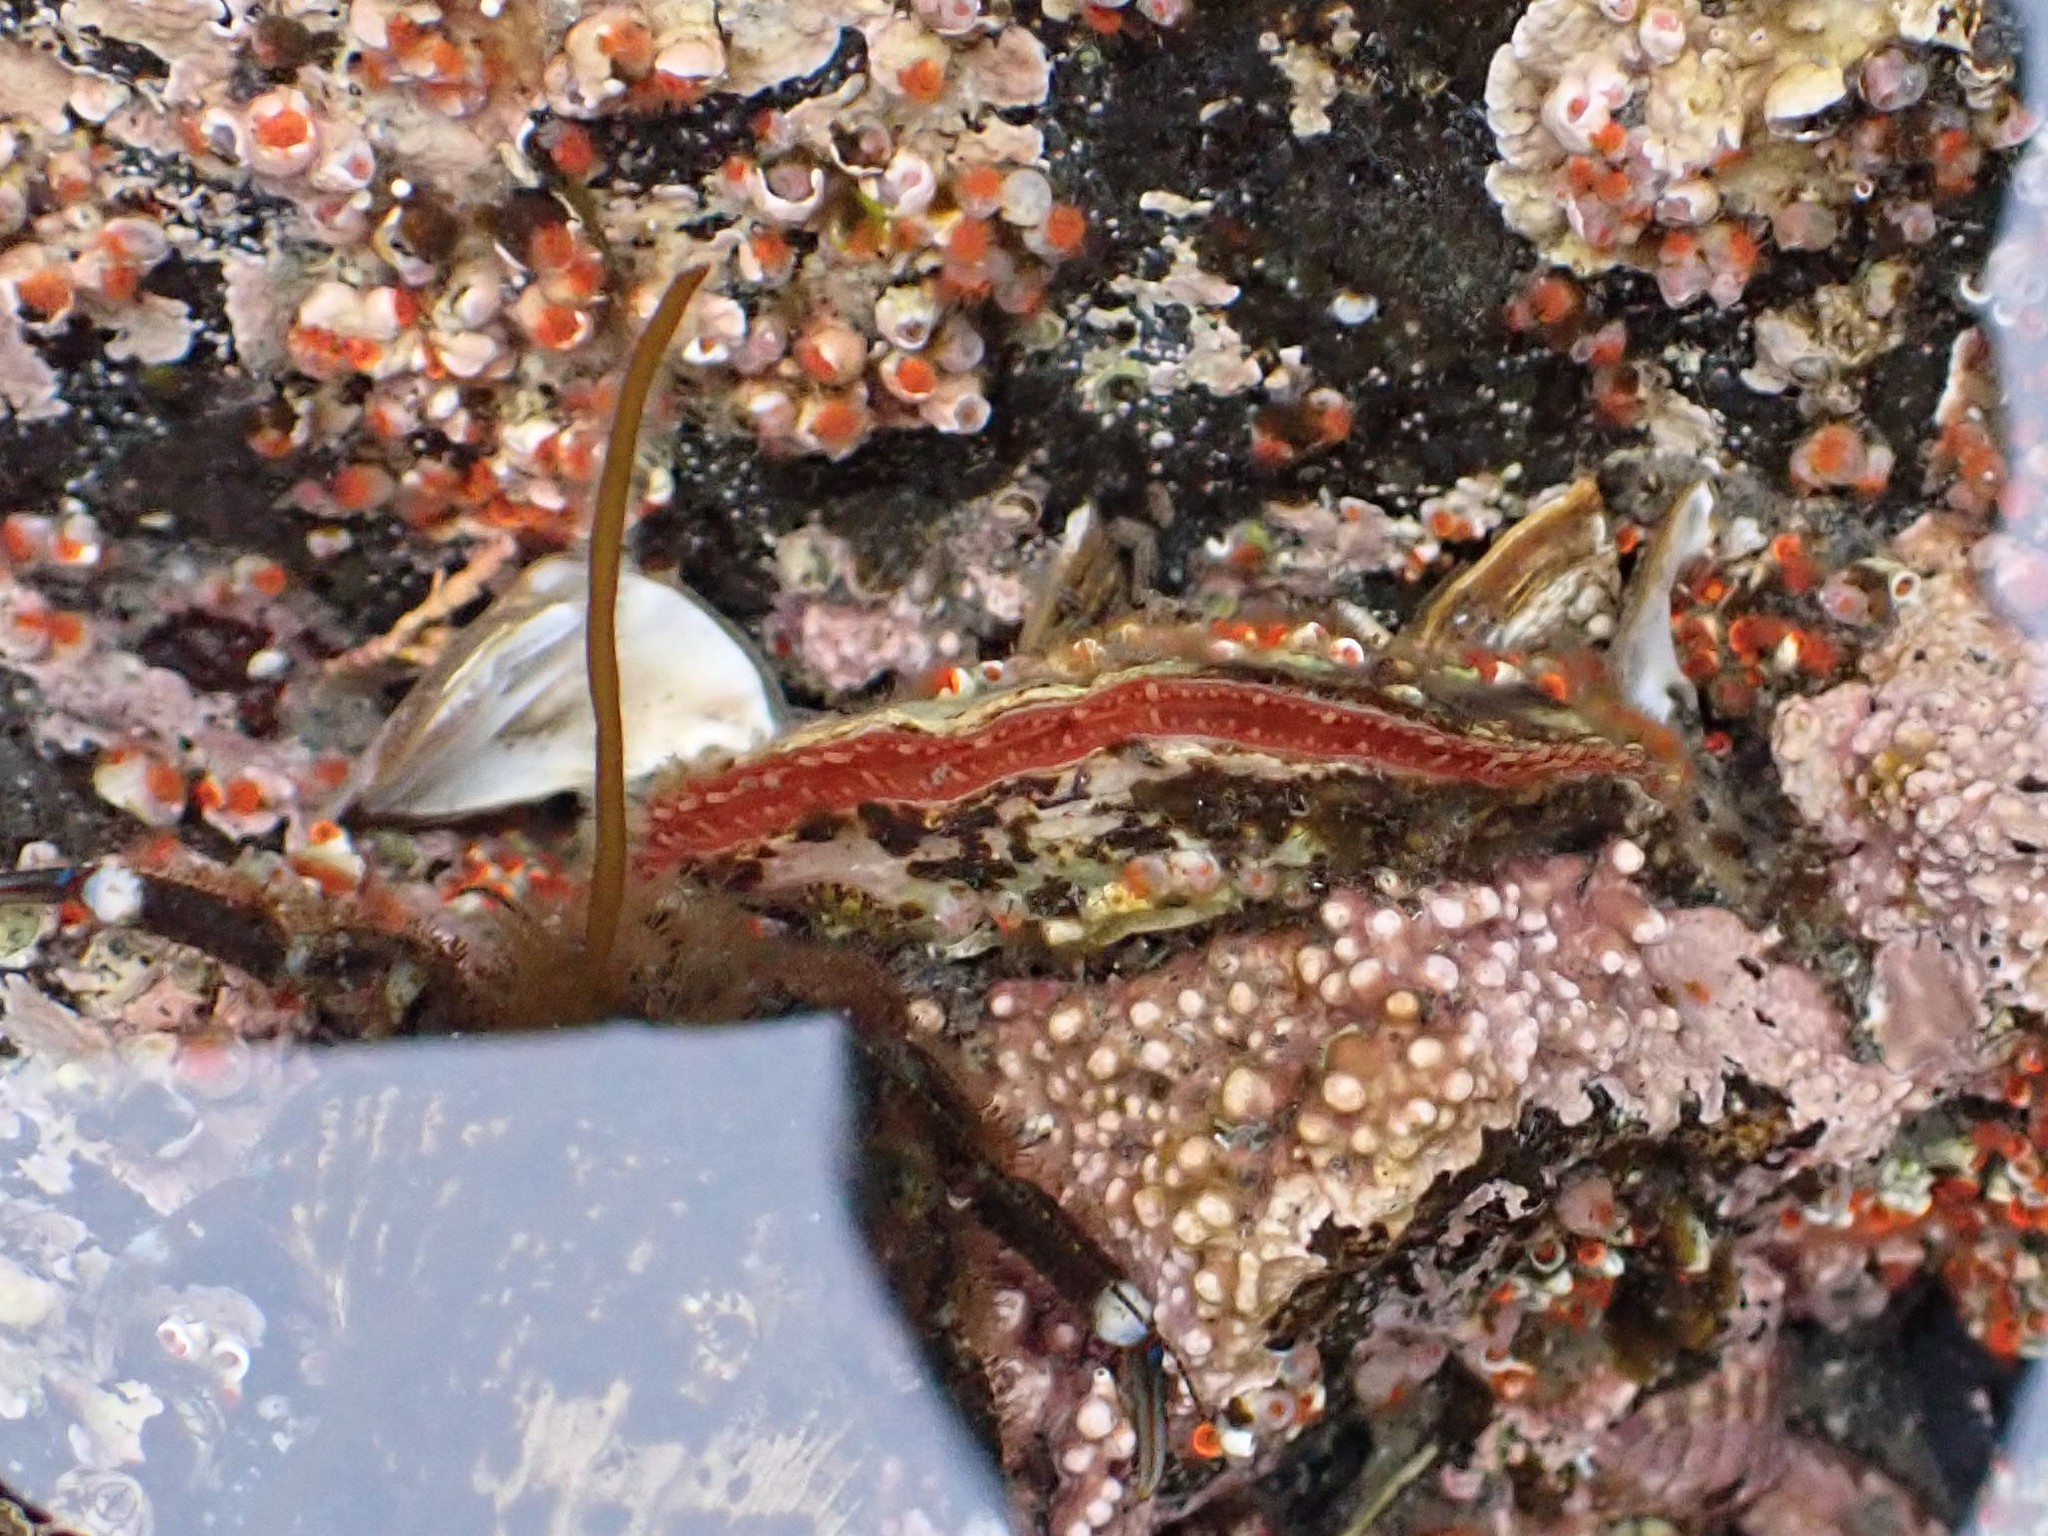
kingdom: Animalia
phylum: Mollusca
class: Bivalvia
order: Pectinida
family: Anomiidae
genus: Pododesmus
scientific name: Pododesmus macrochisma
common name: Alaska jingle
